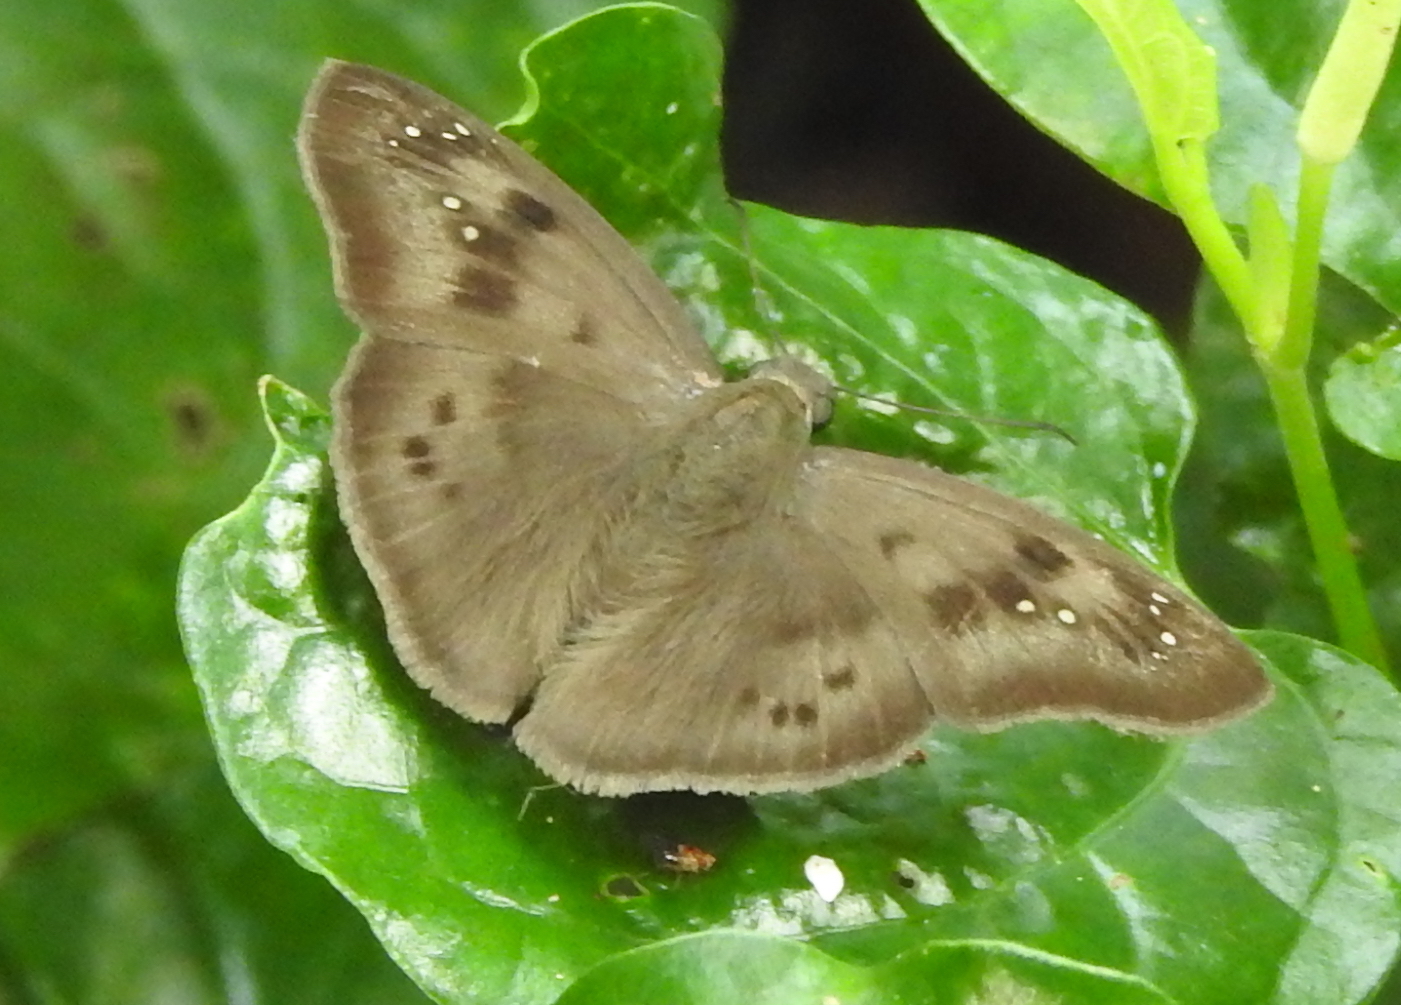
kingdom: Animalia
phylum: Arthropoda
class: Insecta
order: Lepidoptera
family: Hesperiidae
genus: Tagiades
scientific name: Tagiades japetus
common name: Pied flat
